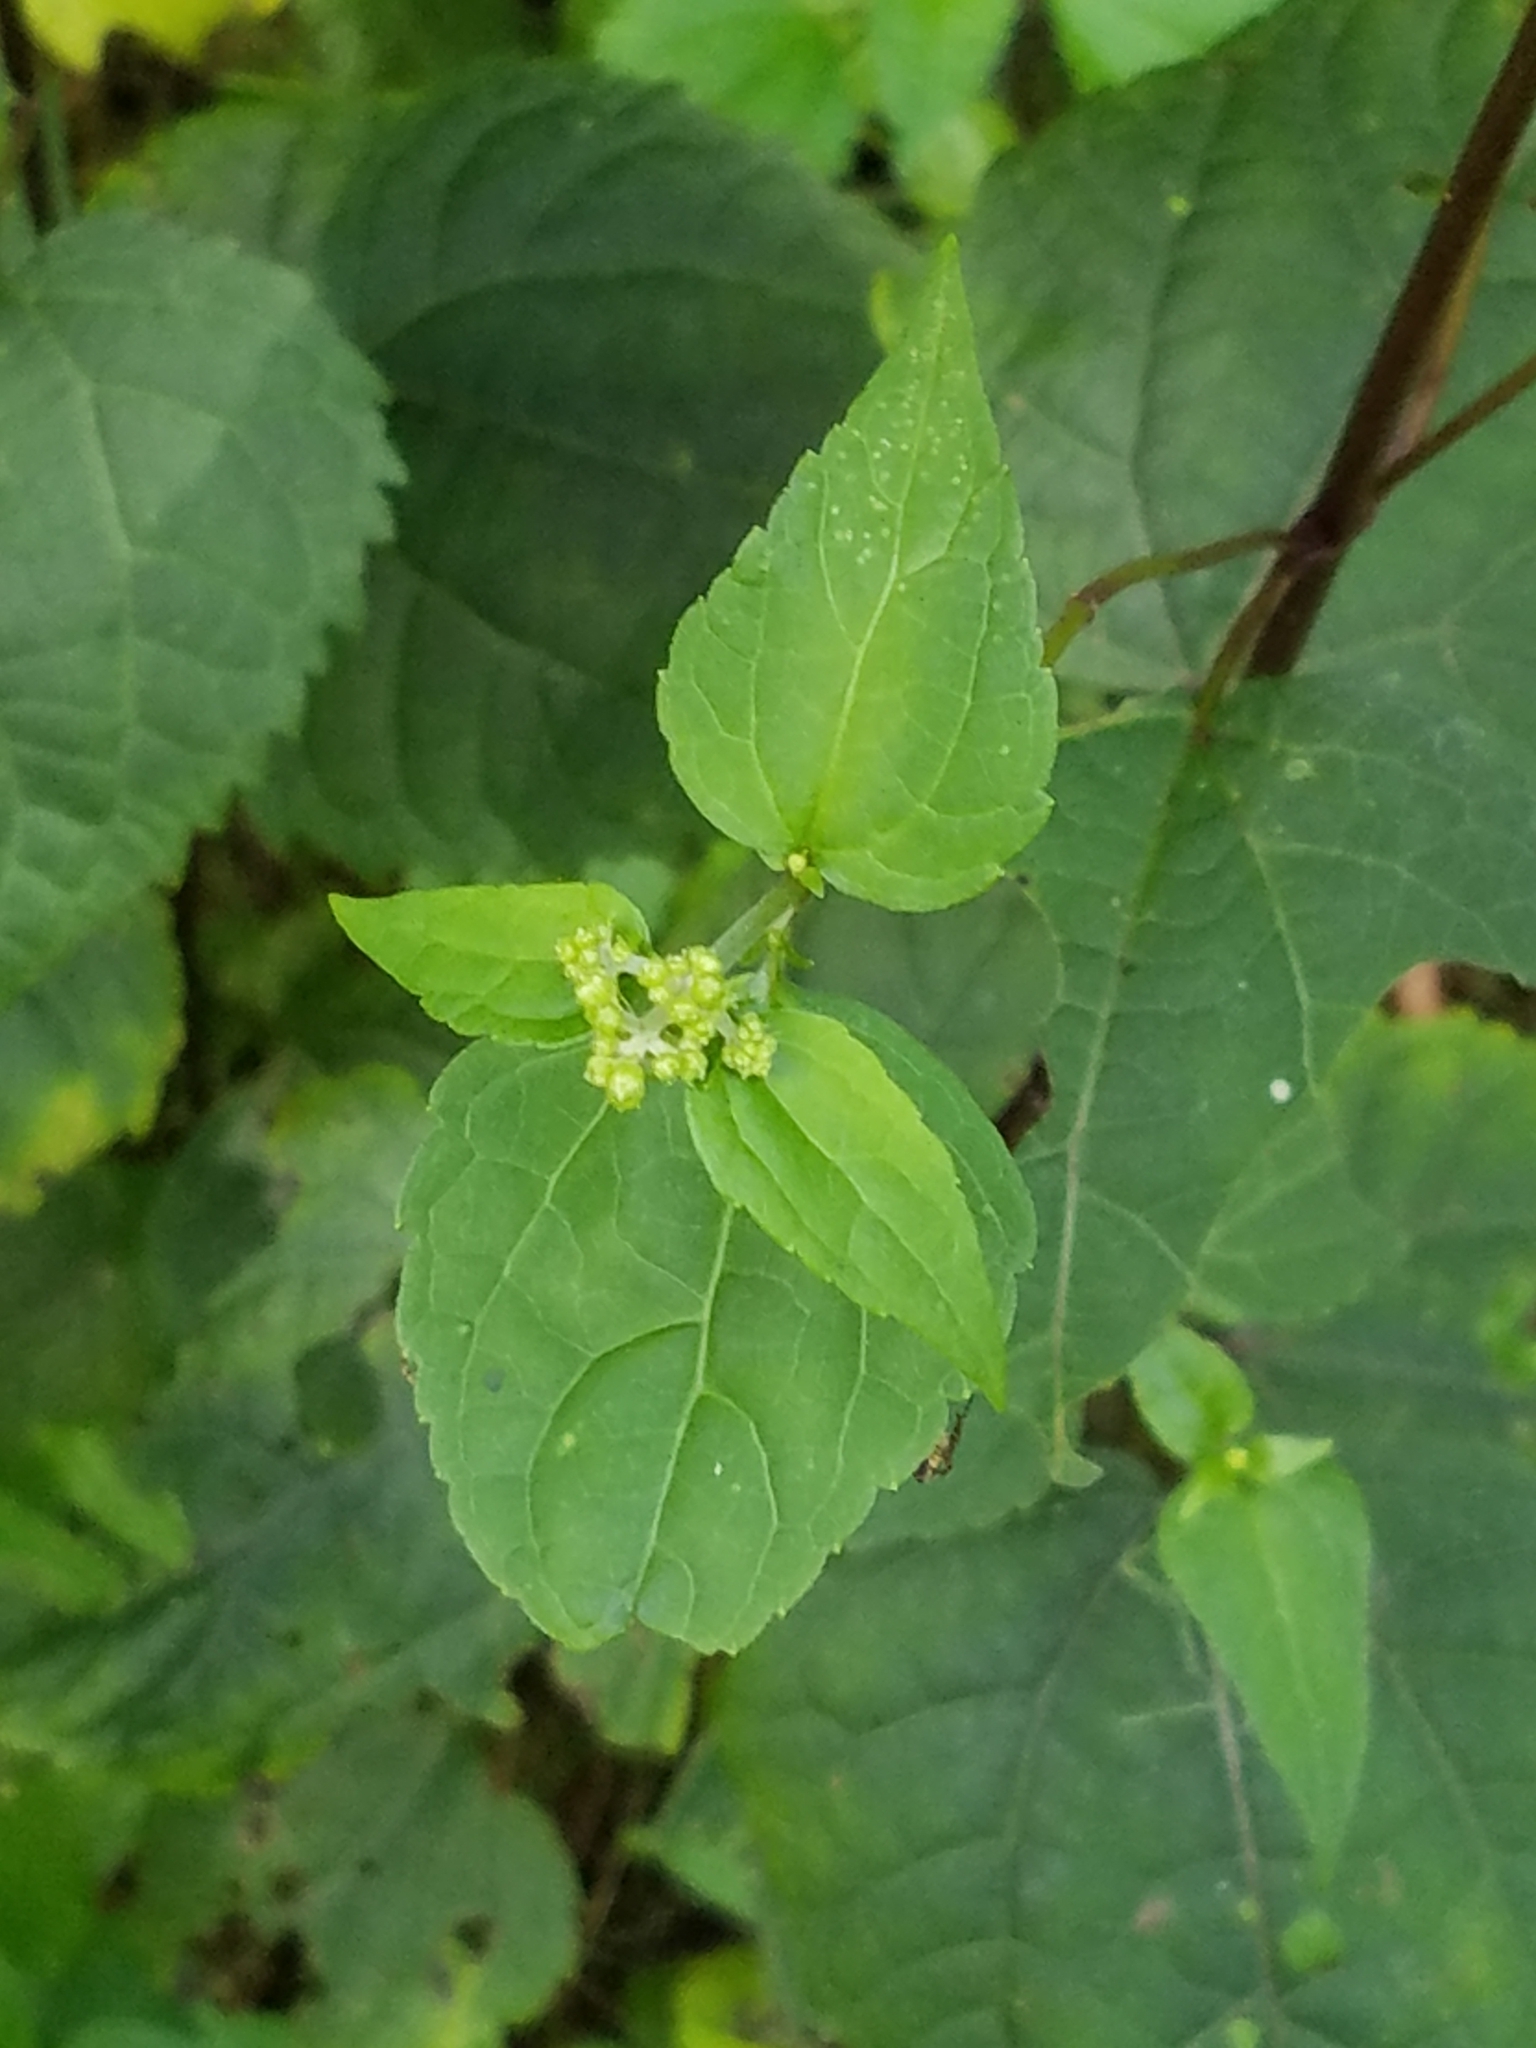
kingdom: Plantae
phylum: Tracheophyta
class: Magnoliopsida
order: Asterales
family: Asteraceae
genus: Ageratina
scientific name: Ageratina altissima
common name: White snakeroot
